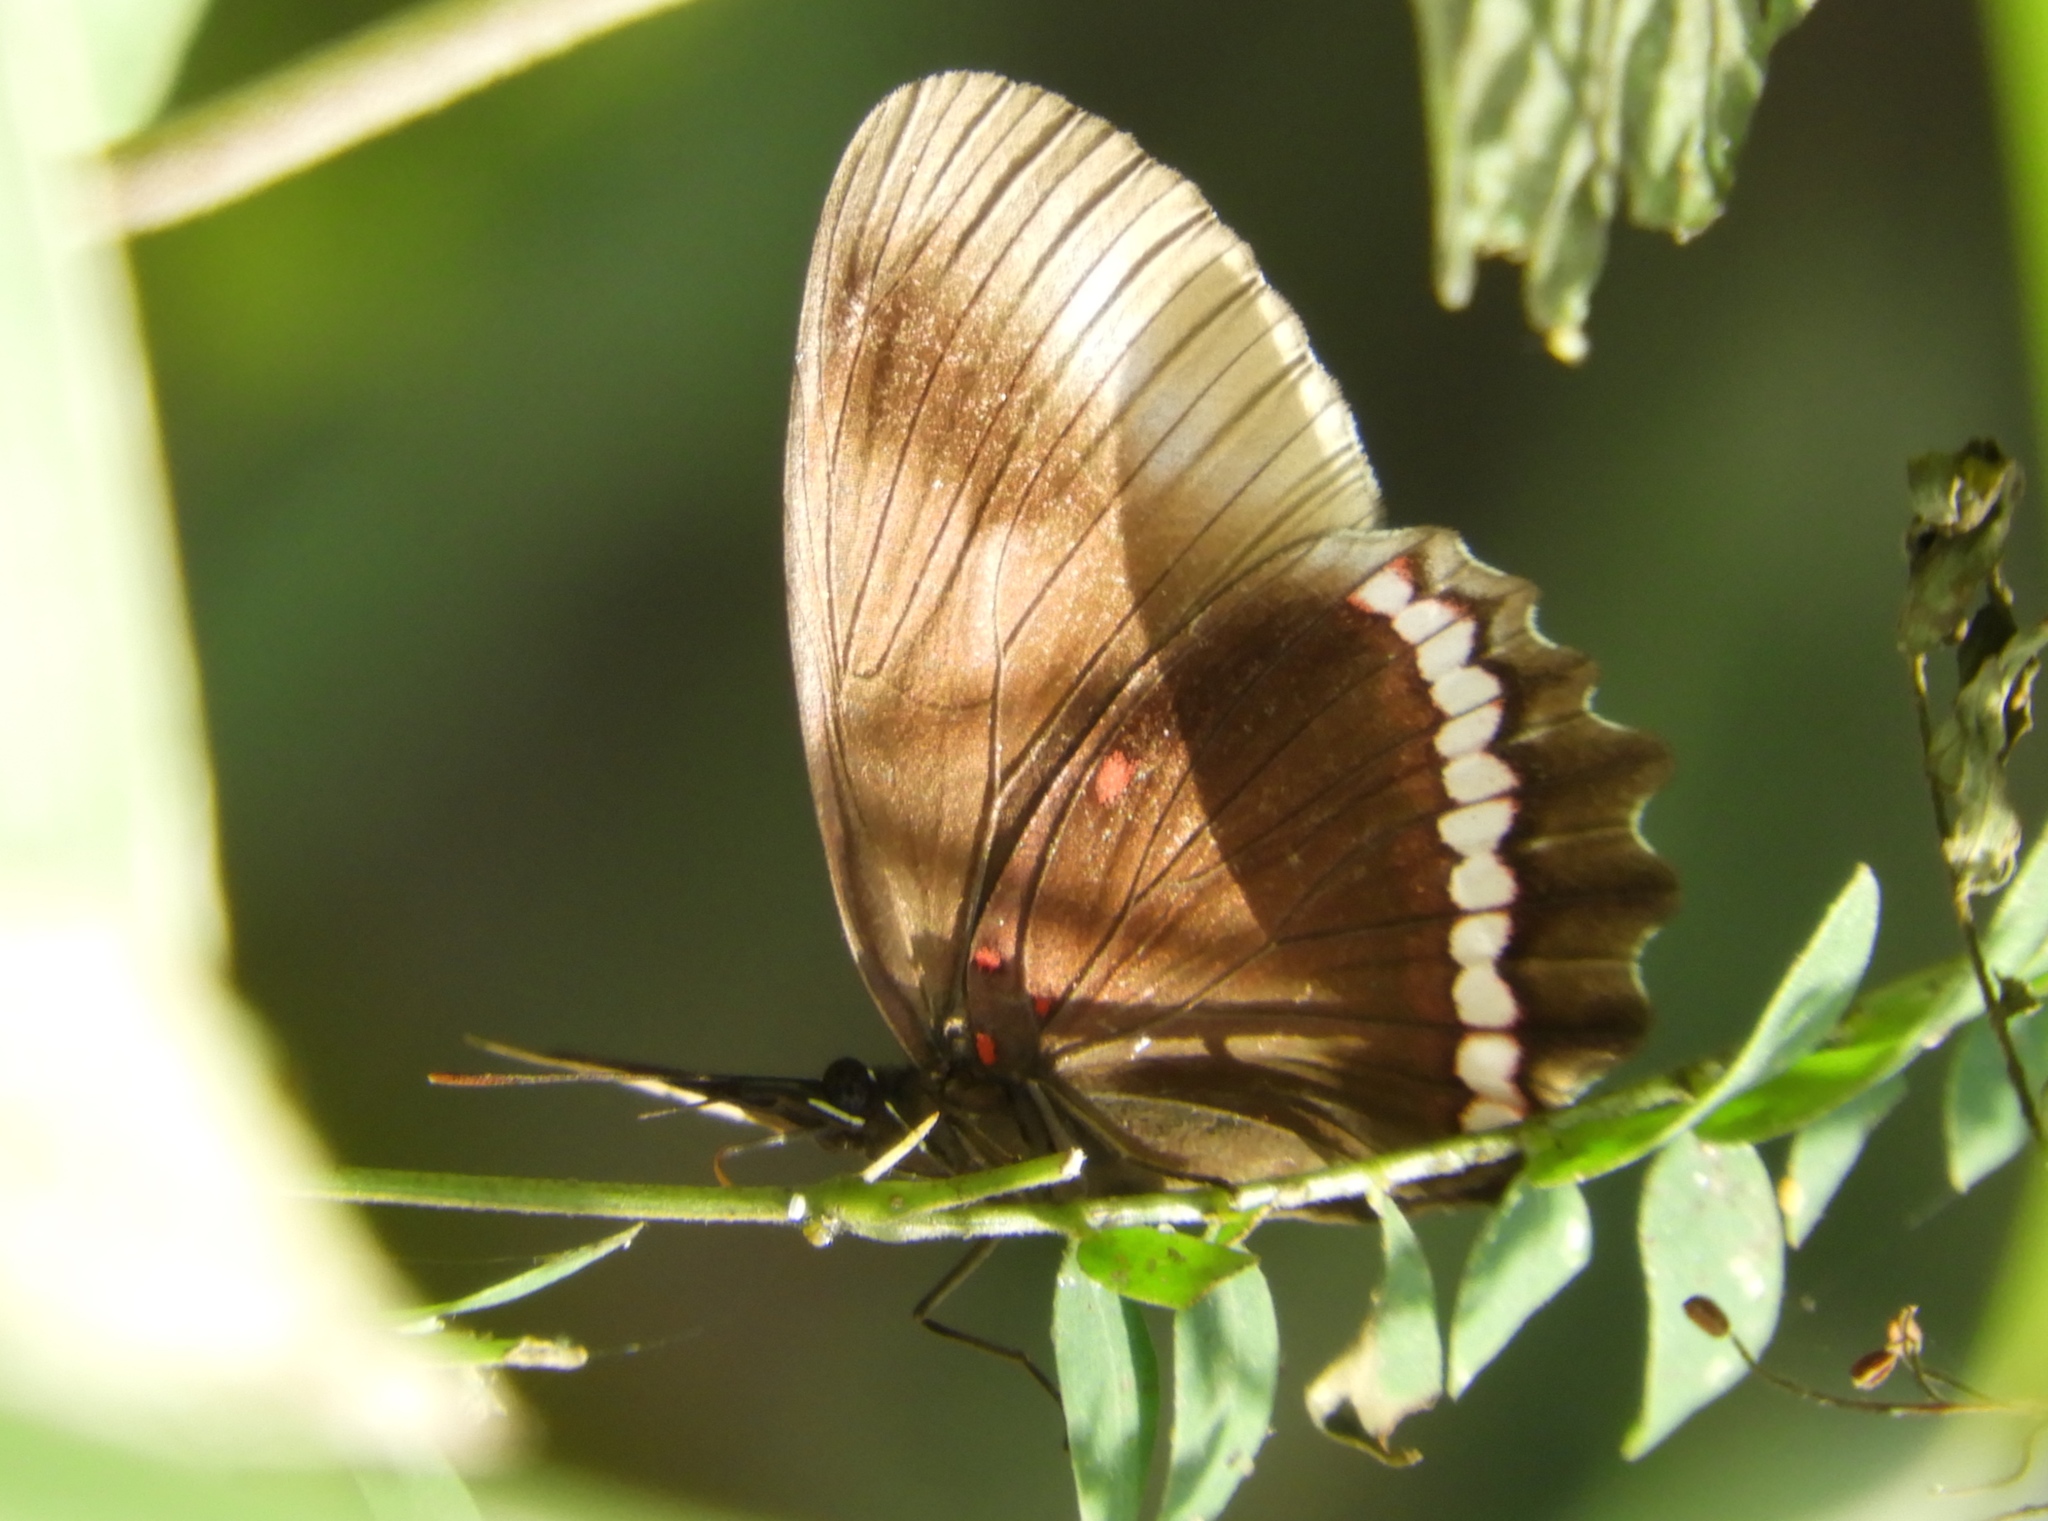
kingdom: Animalia
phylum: Arthropoda
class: Insecta
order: Lepidoptera
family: Nymphalidae
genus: Biblis
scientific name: Biblis aganisa
